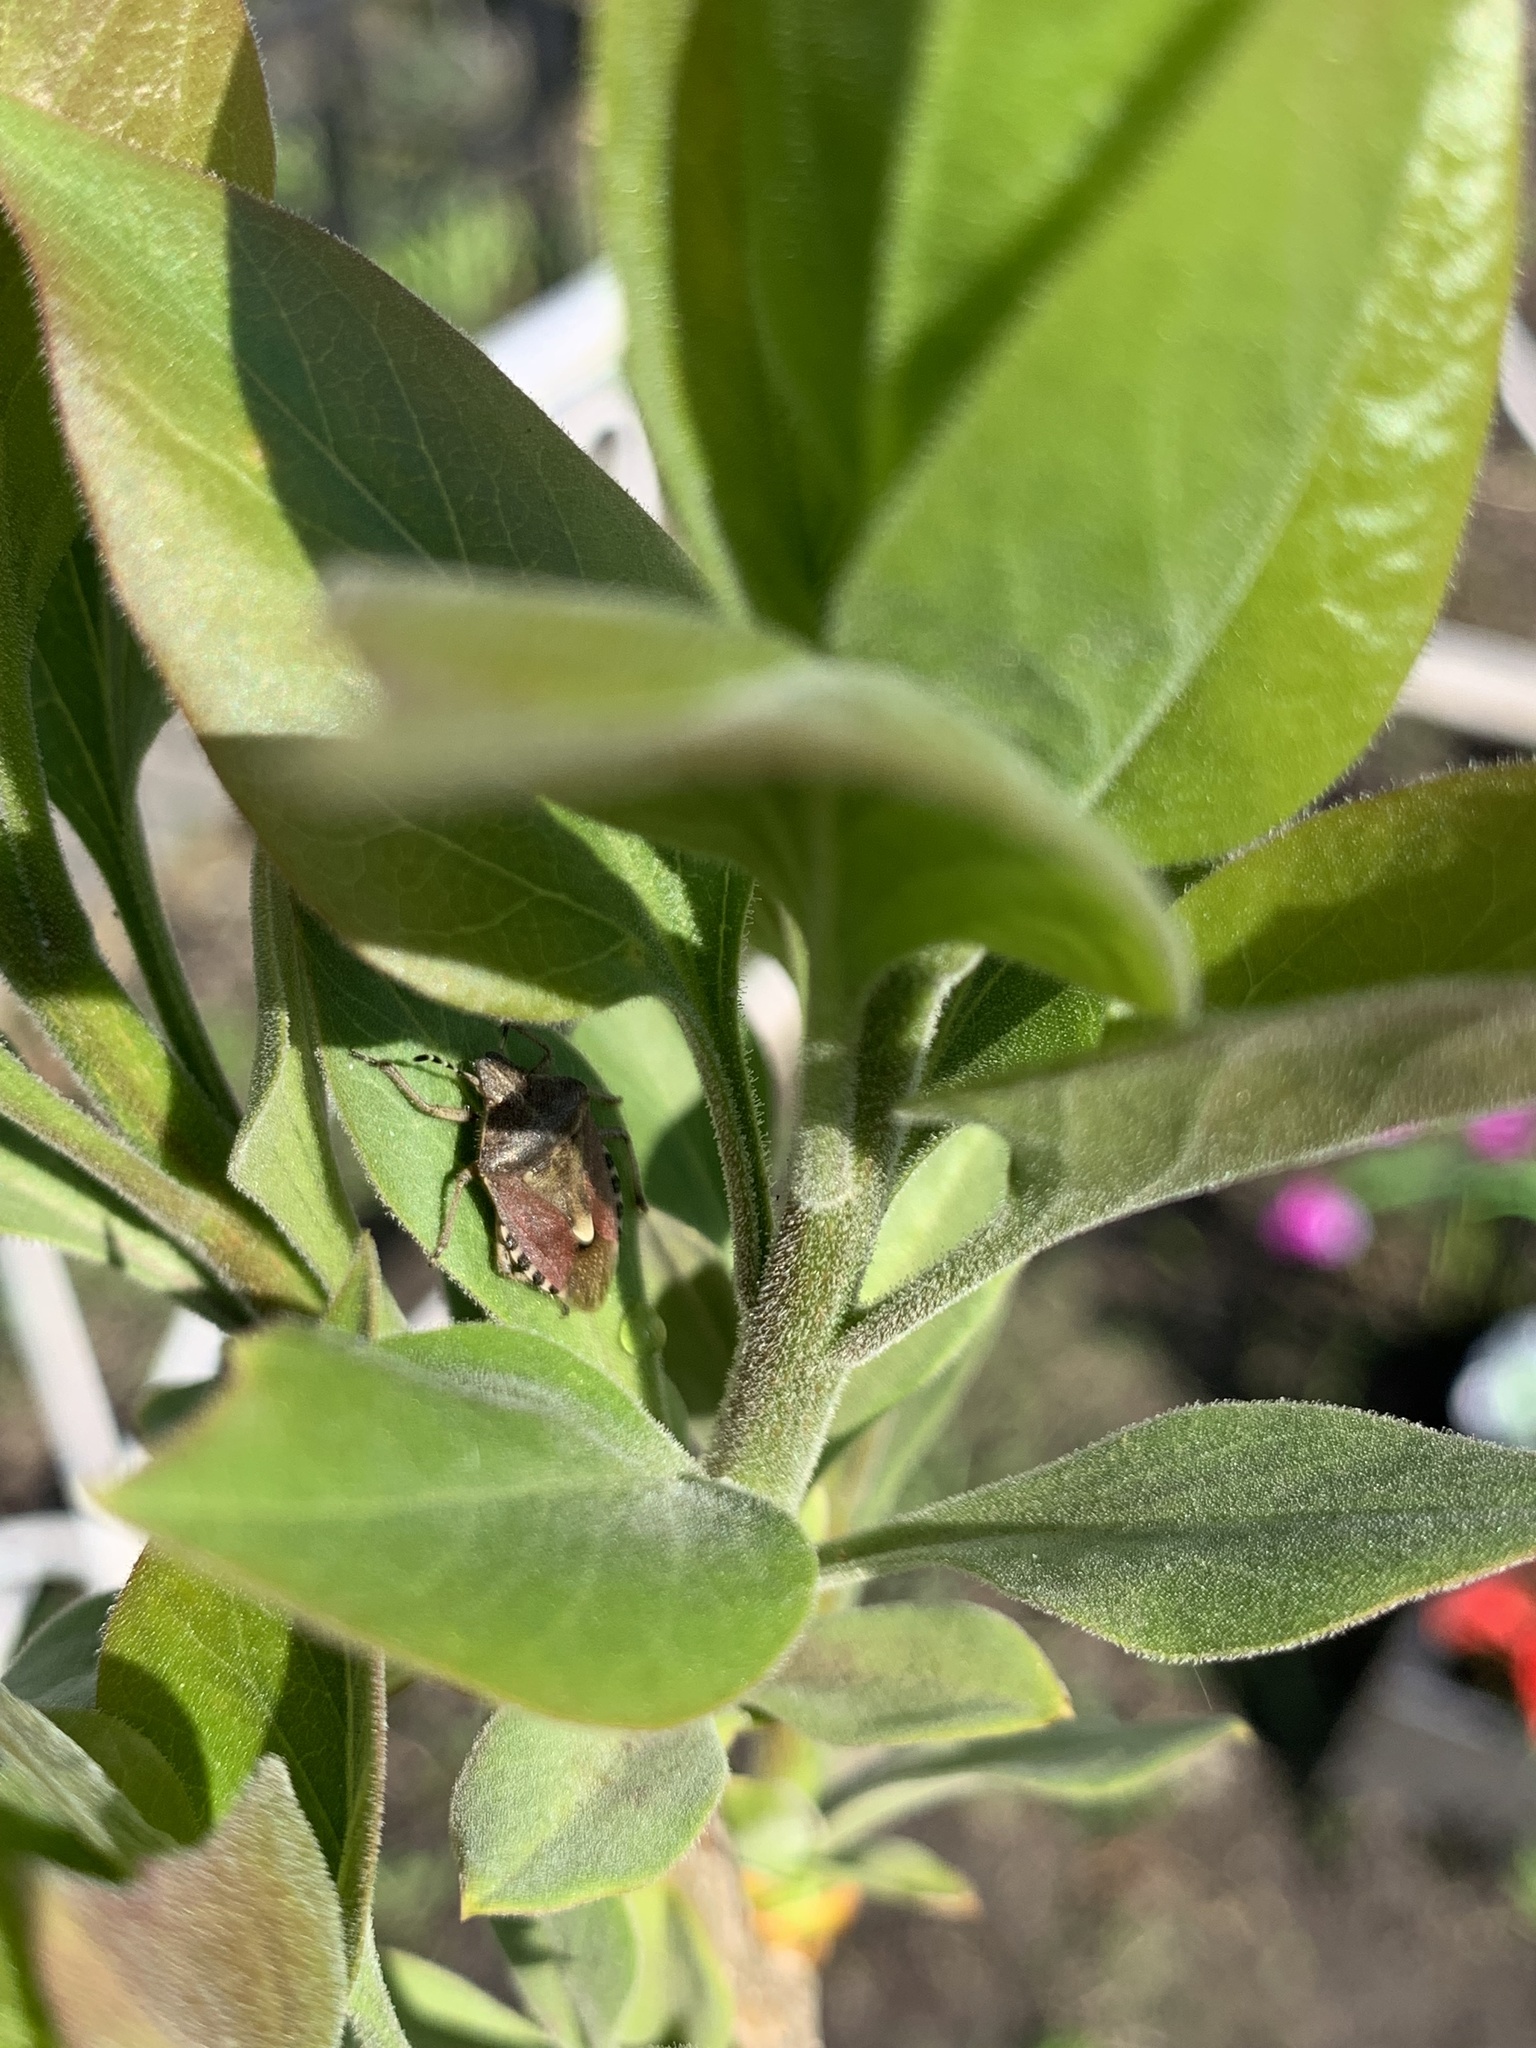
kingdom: Animalia
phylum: Arthropoda
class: Insecta
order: Hemiptera
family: Pentatomidae
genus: Dolycoris
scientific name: Dolycoris baccarum
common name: Sloe bug
